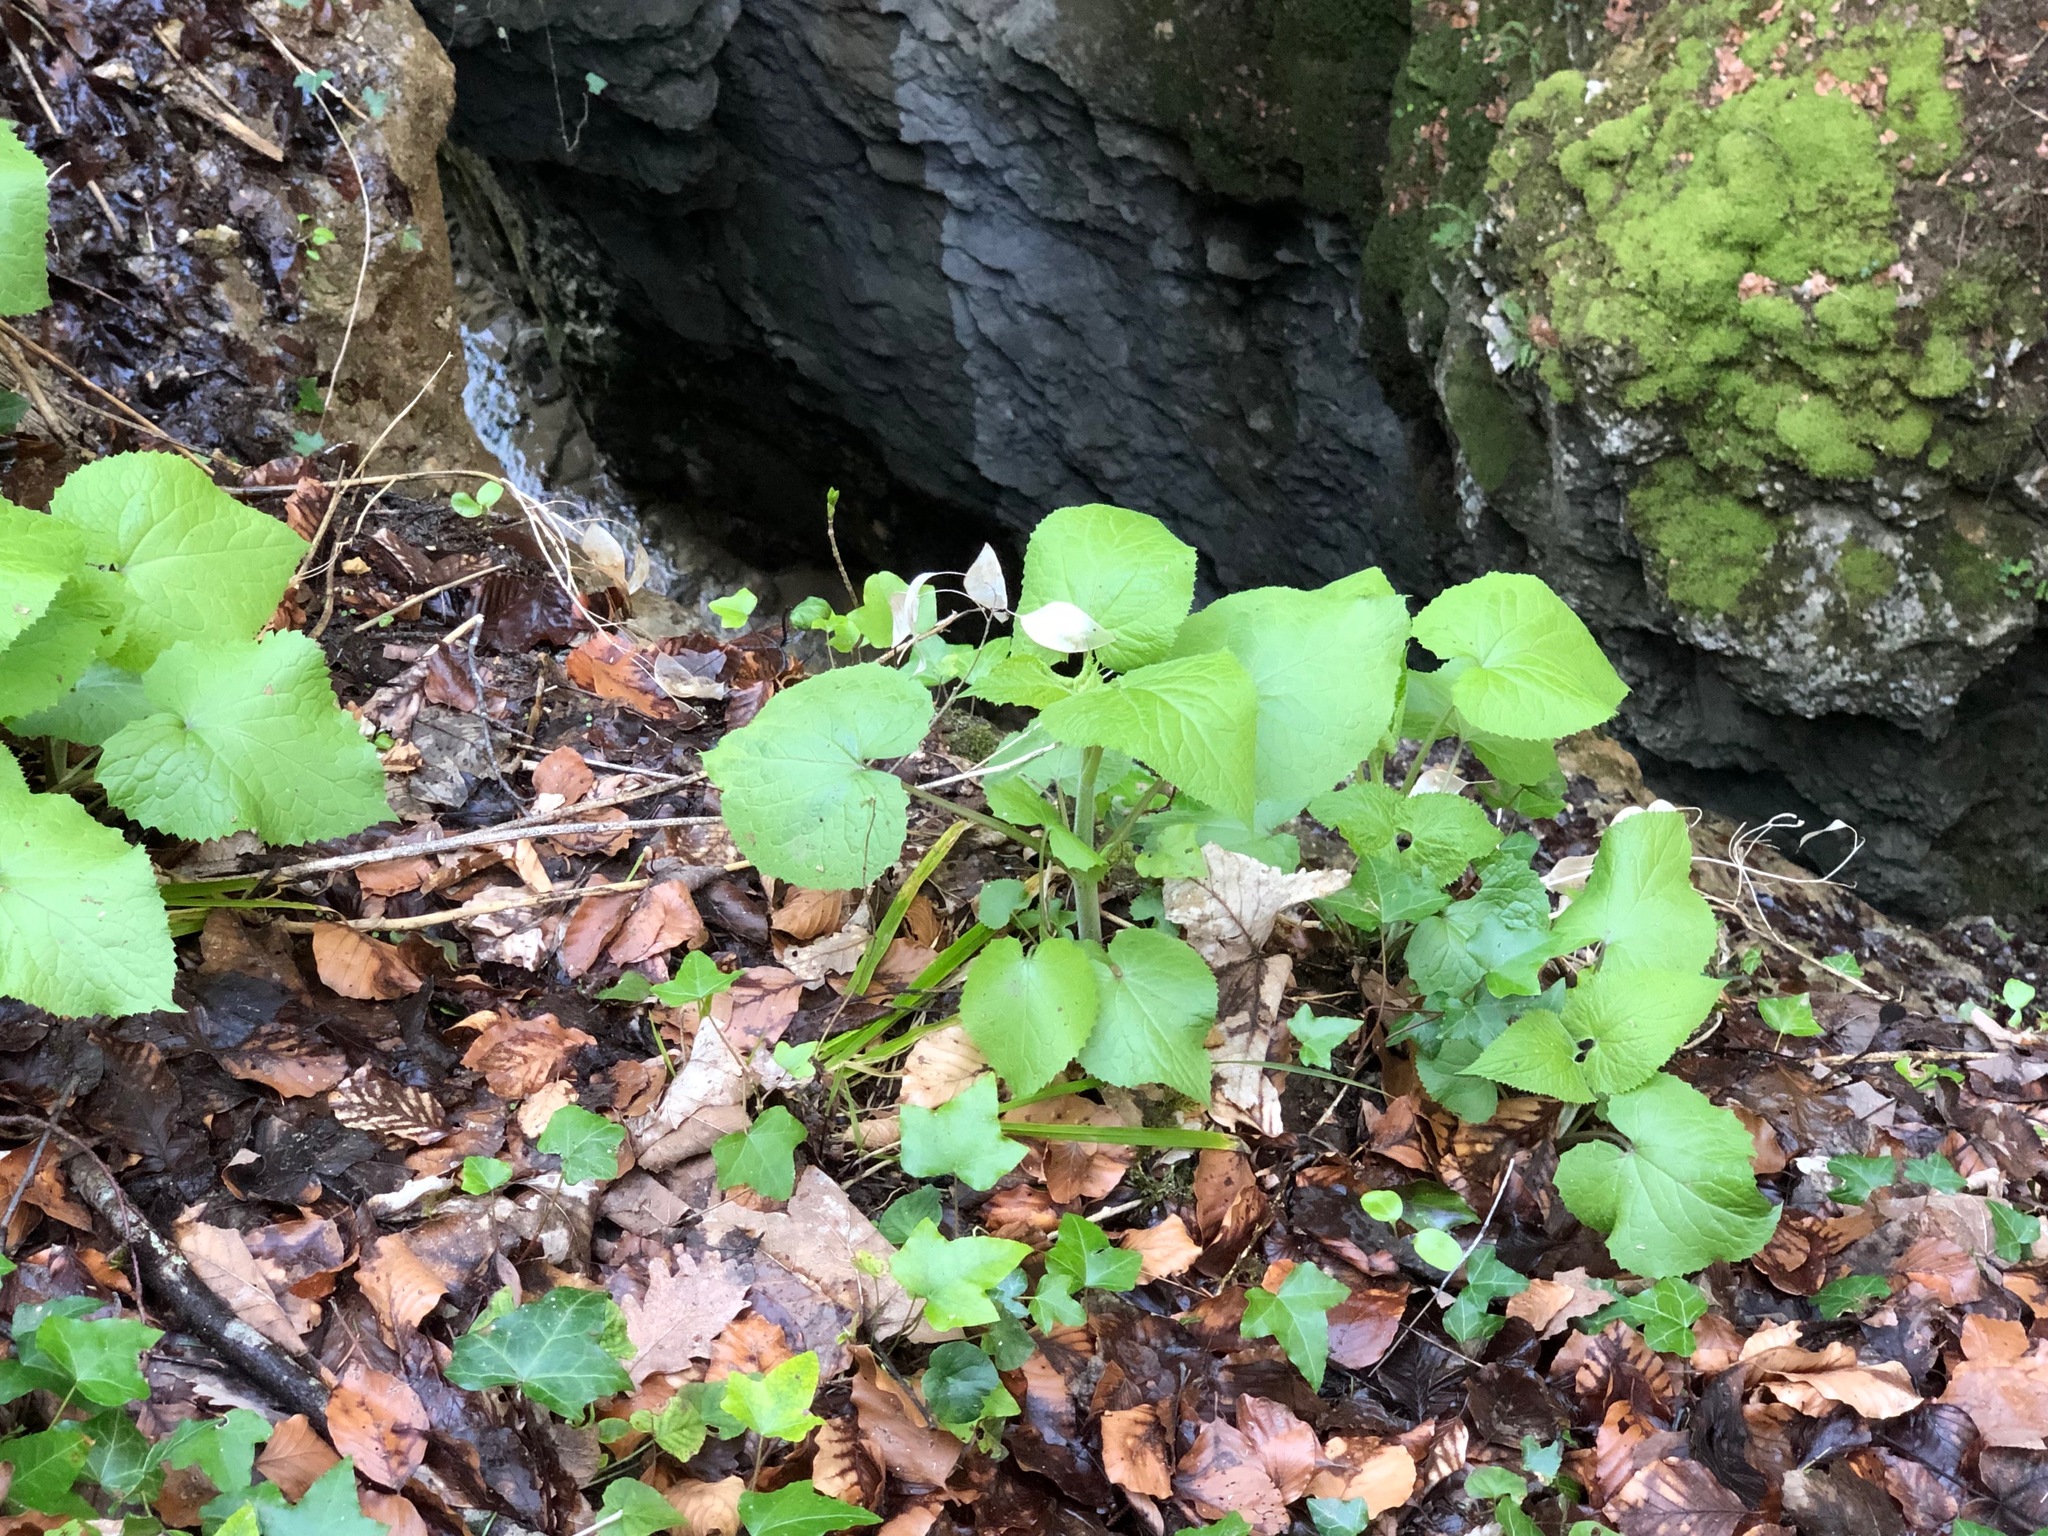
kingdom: Plantae
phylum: Tracheophyta
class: Magnoliopsida
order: Brassicales
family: Brassicaceae
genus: Lunaria
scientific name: Lunaria rediviva
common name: Perennial honesty
